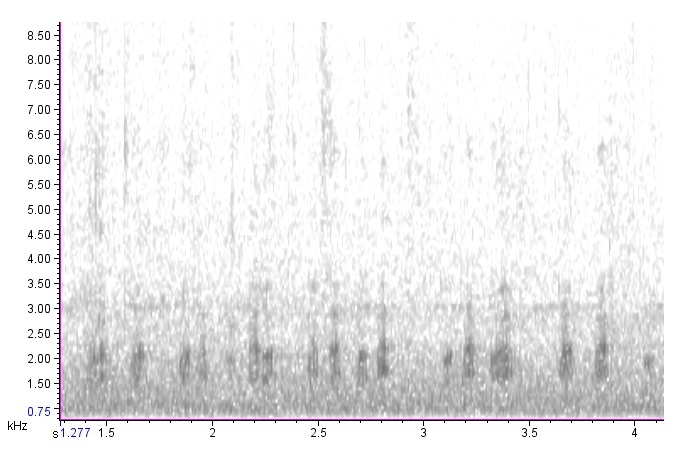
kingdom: Animalia
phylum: Chordata
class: Aves
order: Anseriformes
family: Anatidae
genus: Anas
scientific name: Anas platyrhynchos
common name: Mallard
